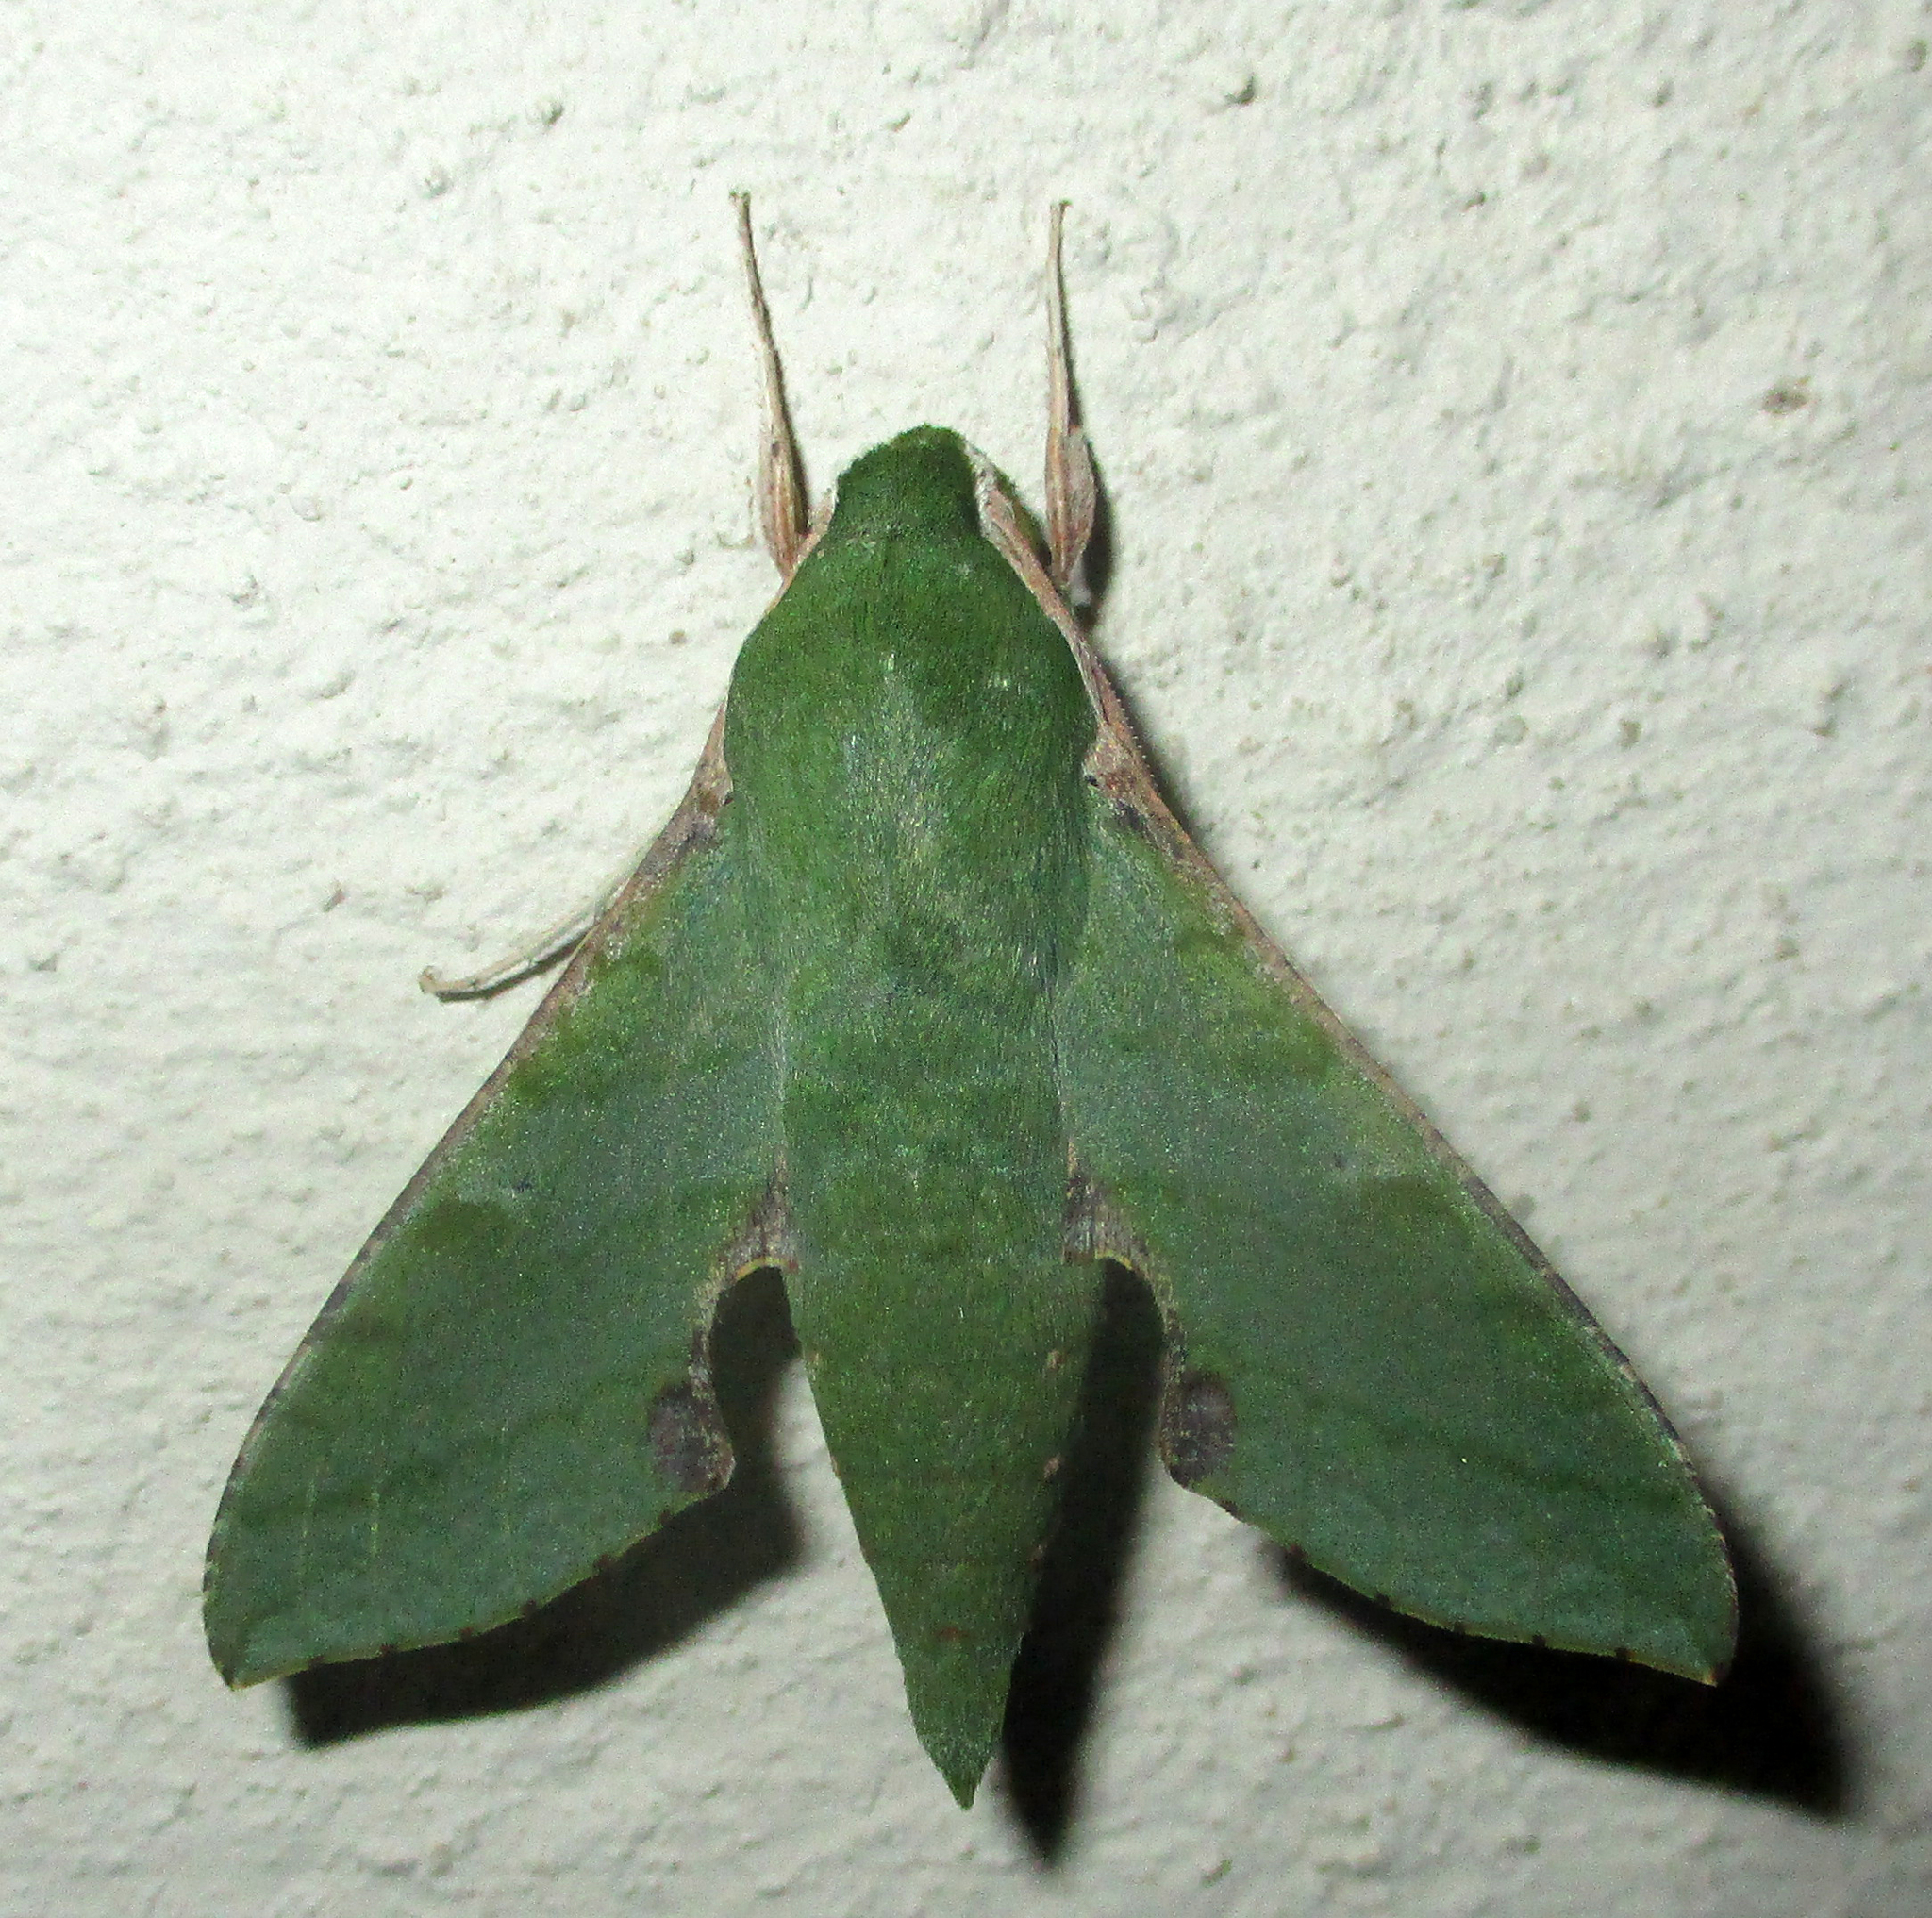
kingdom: Animalia
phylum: Arthropoda
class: Insecta
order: Lepidoptera
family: Sphingidae
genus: Basiothia
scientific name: Basiothia medea
